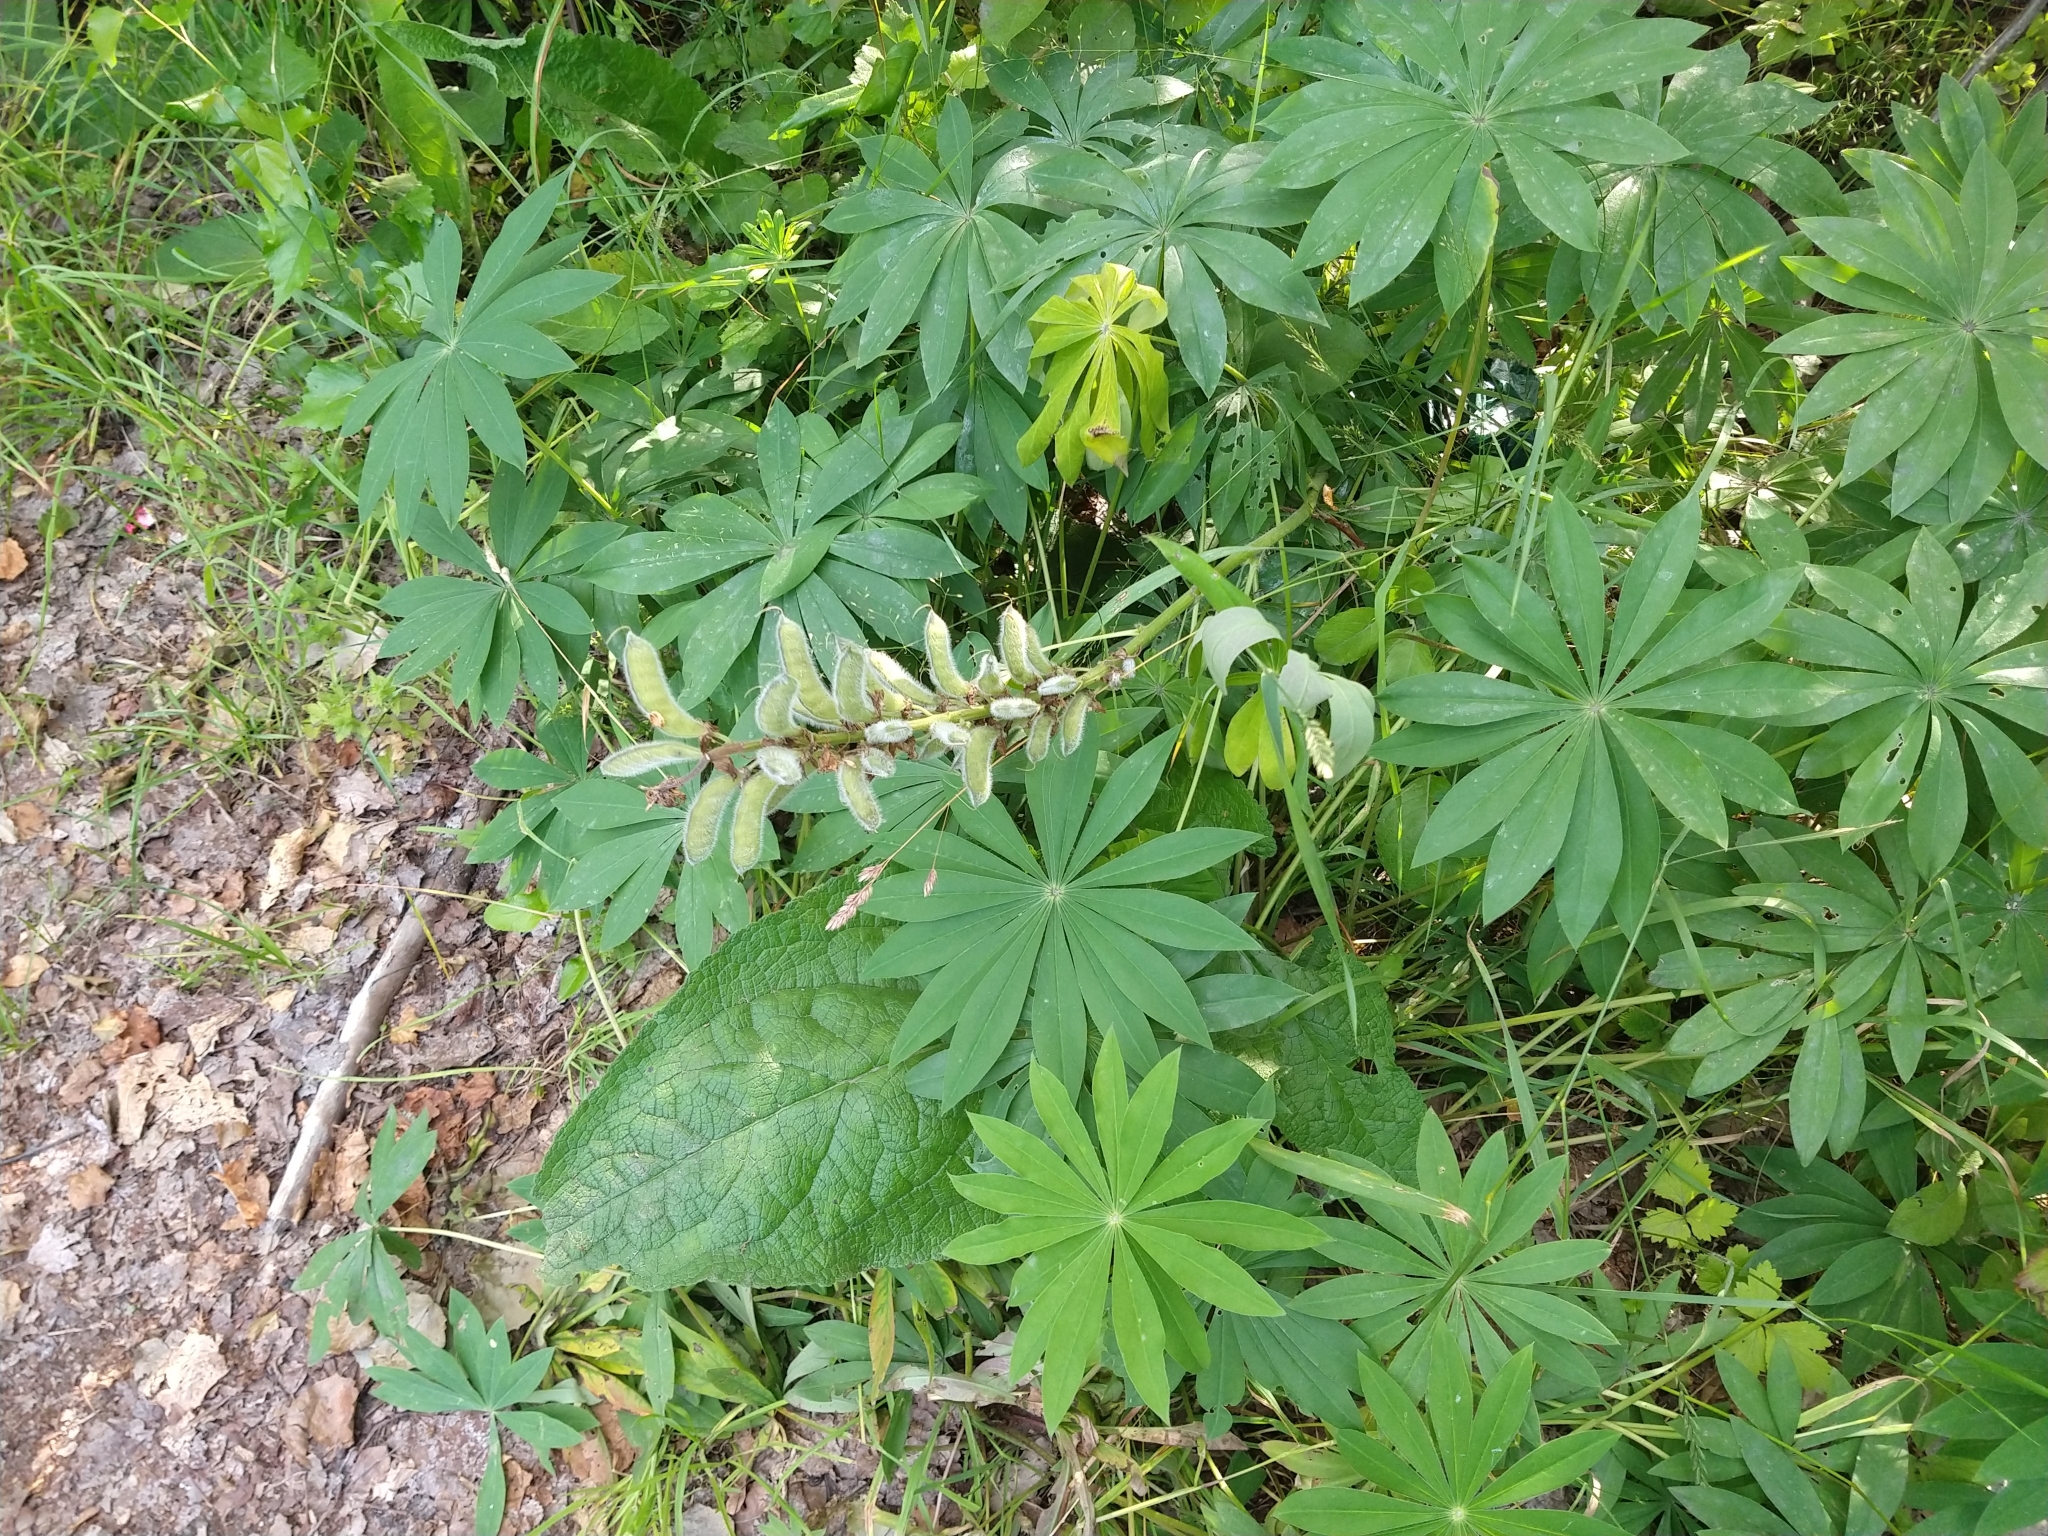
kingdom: Plantae
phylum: Tracheophyta
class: Magnoliopsida
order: Fabales
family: Fabaceae
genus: Lupinus
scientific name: Lupinus polyphyllus
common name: Garden lupin
